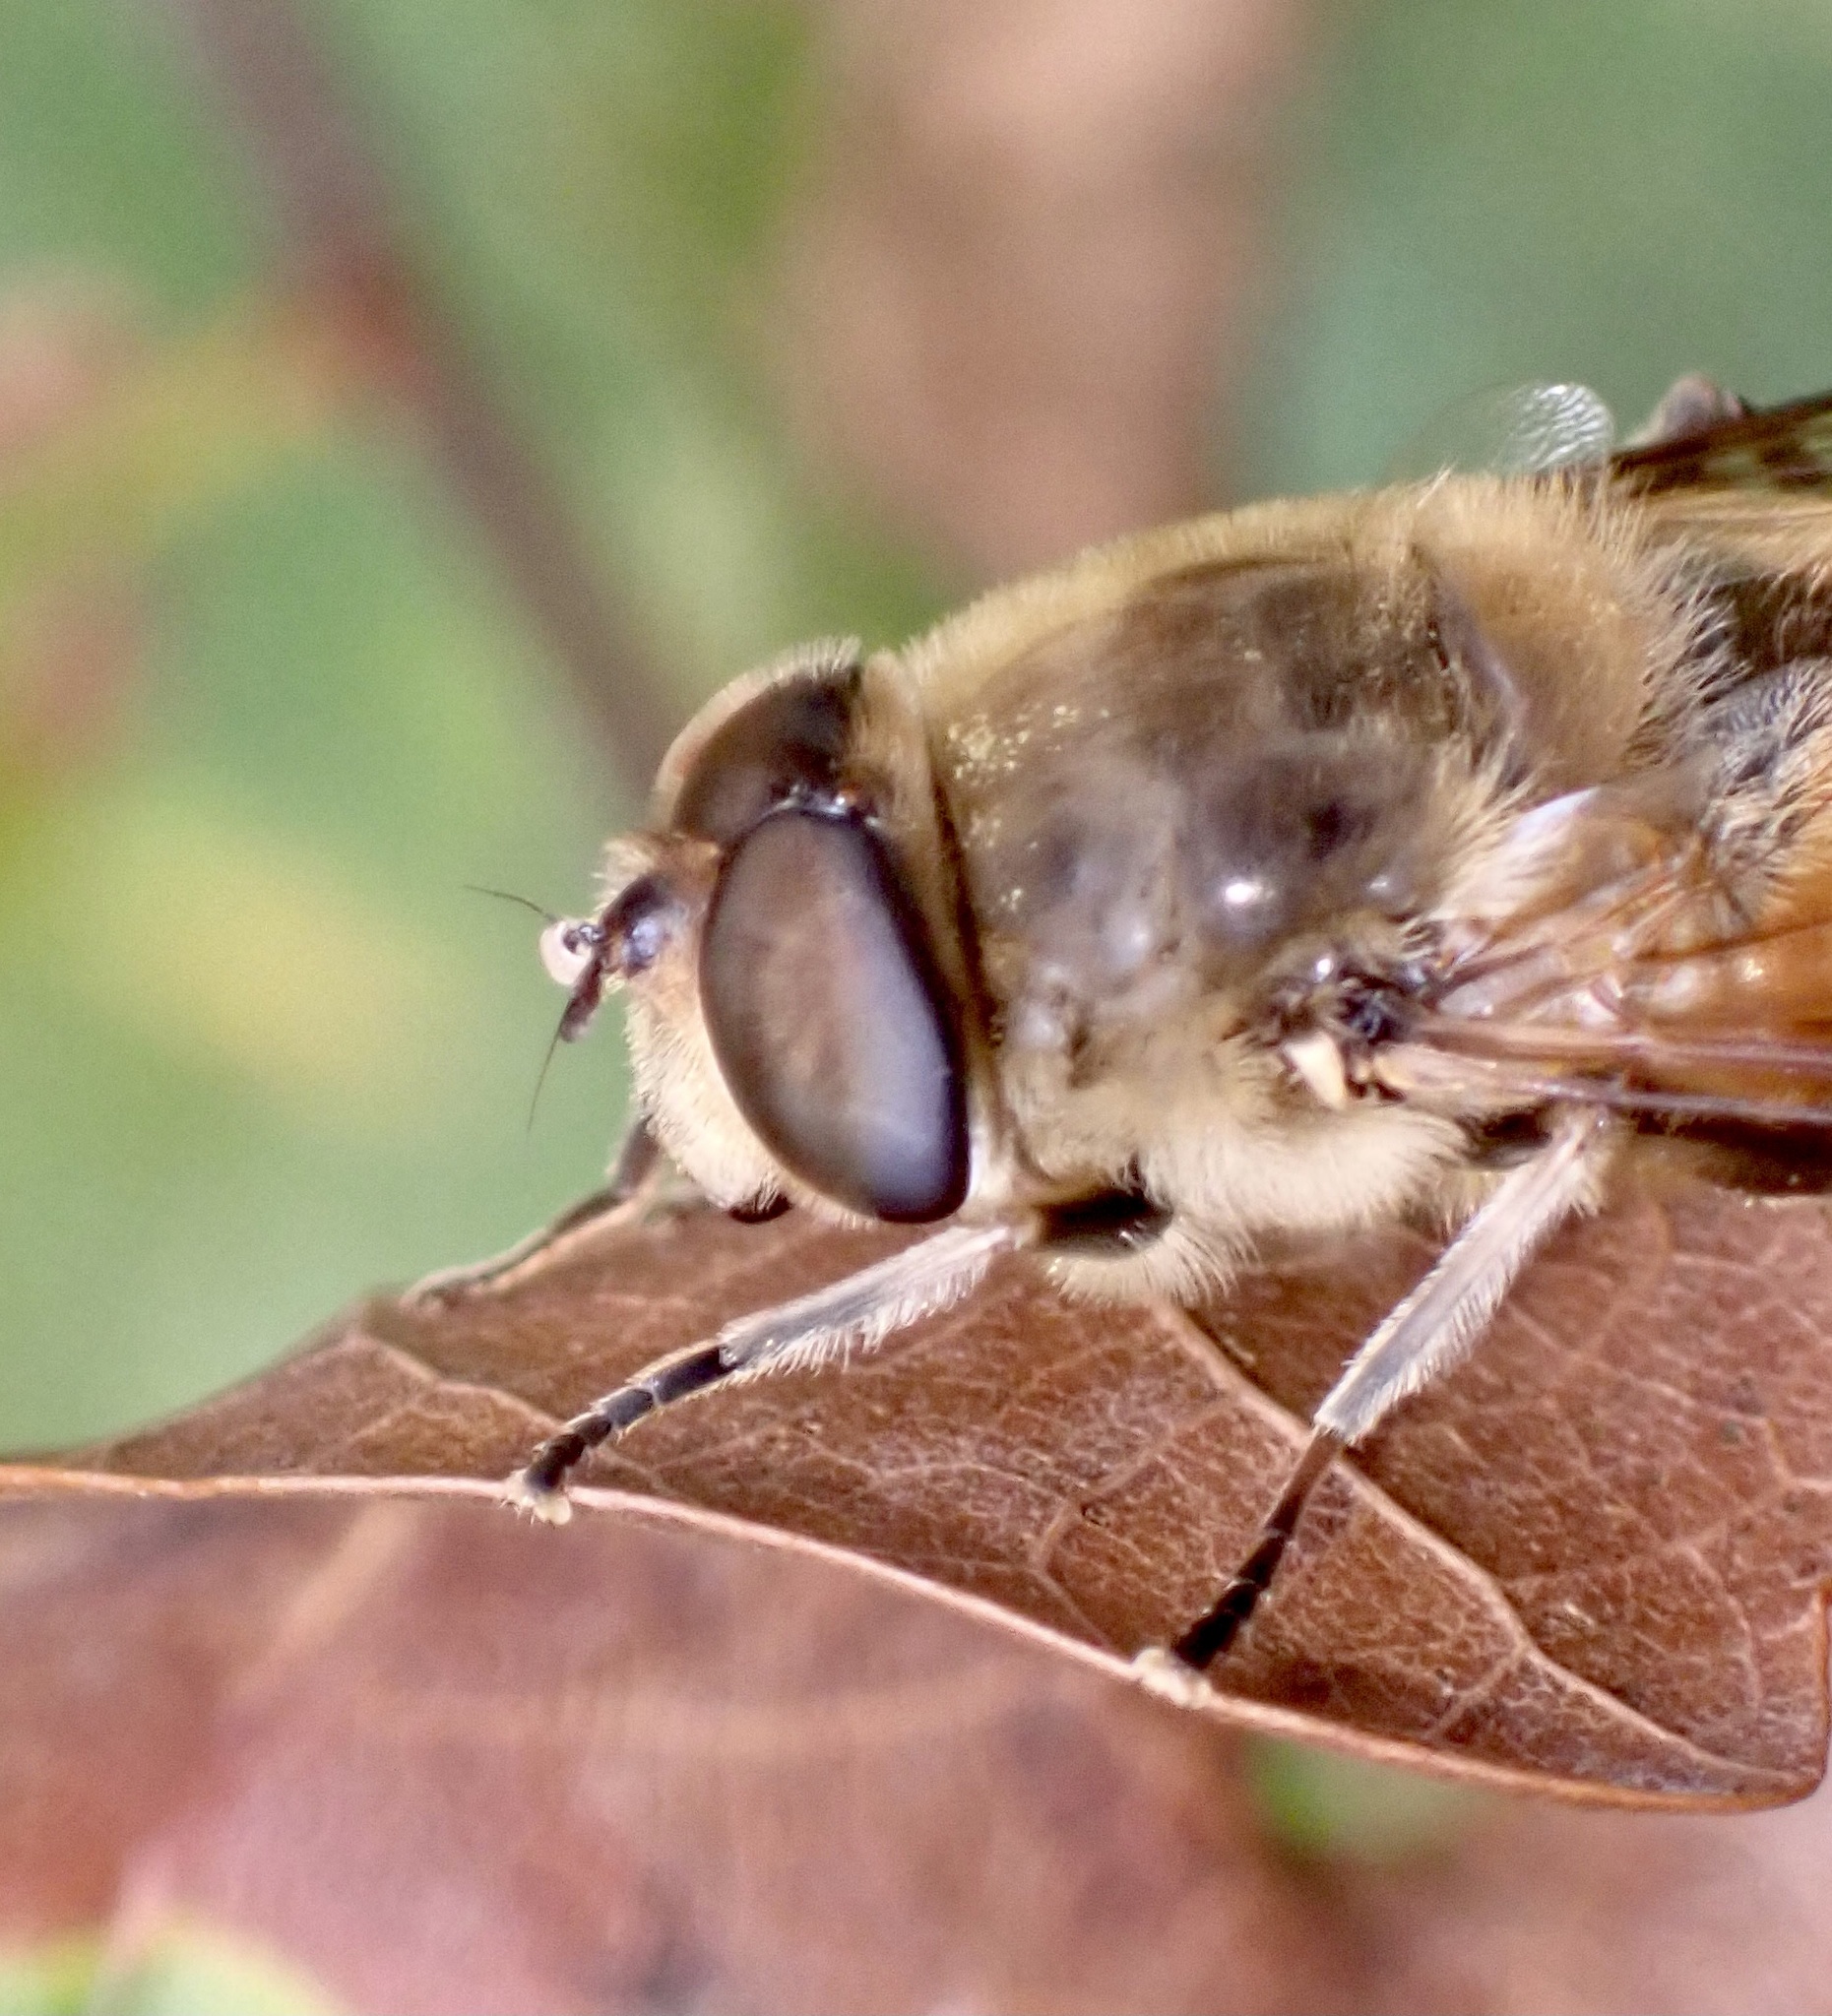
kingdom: Animalia
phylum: Arthropoda
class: Insecta
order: Diptera
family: Syrphidae
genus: Eristalis
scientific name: Eristalis tenax
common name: Drone fly
